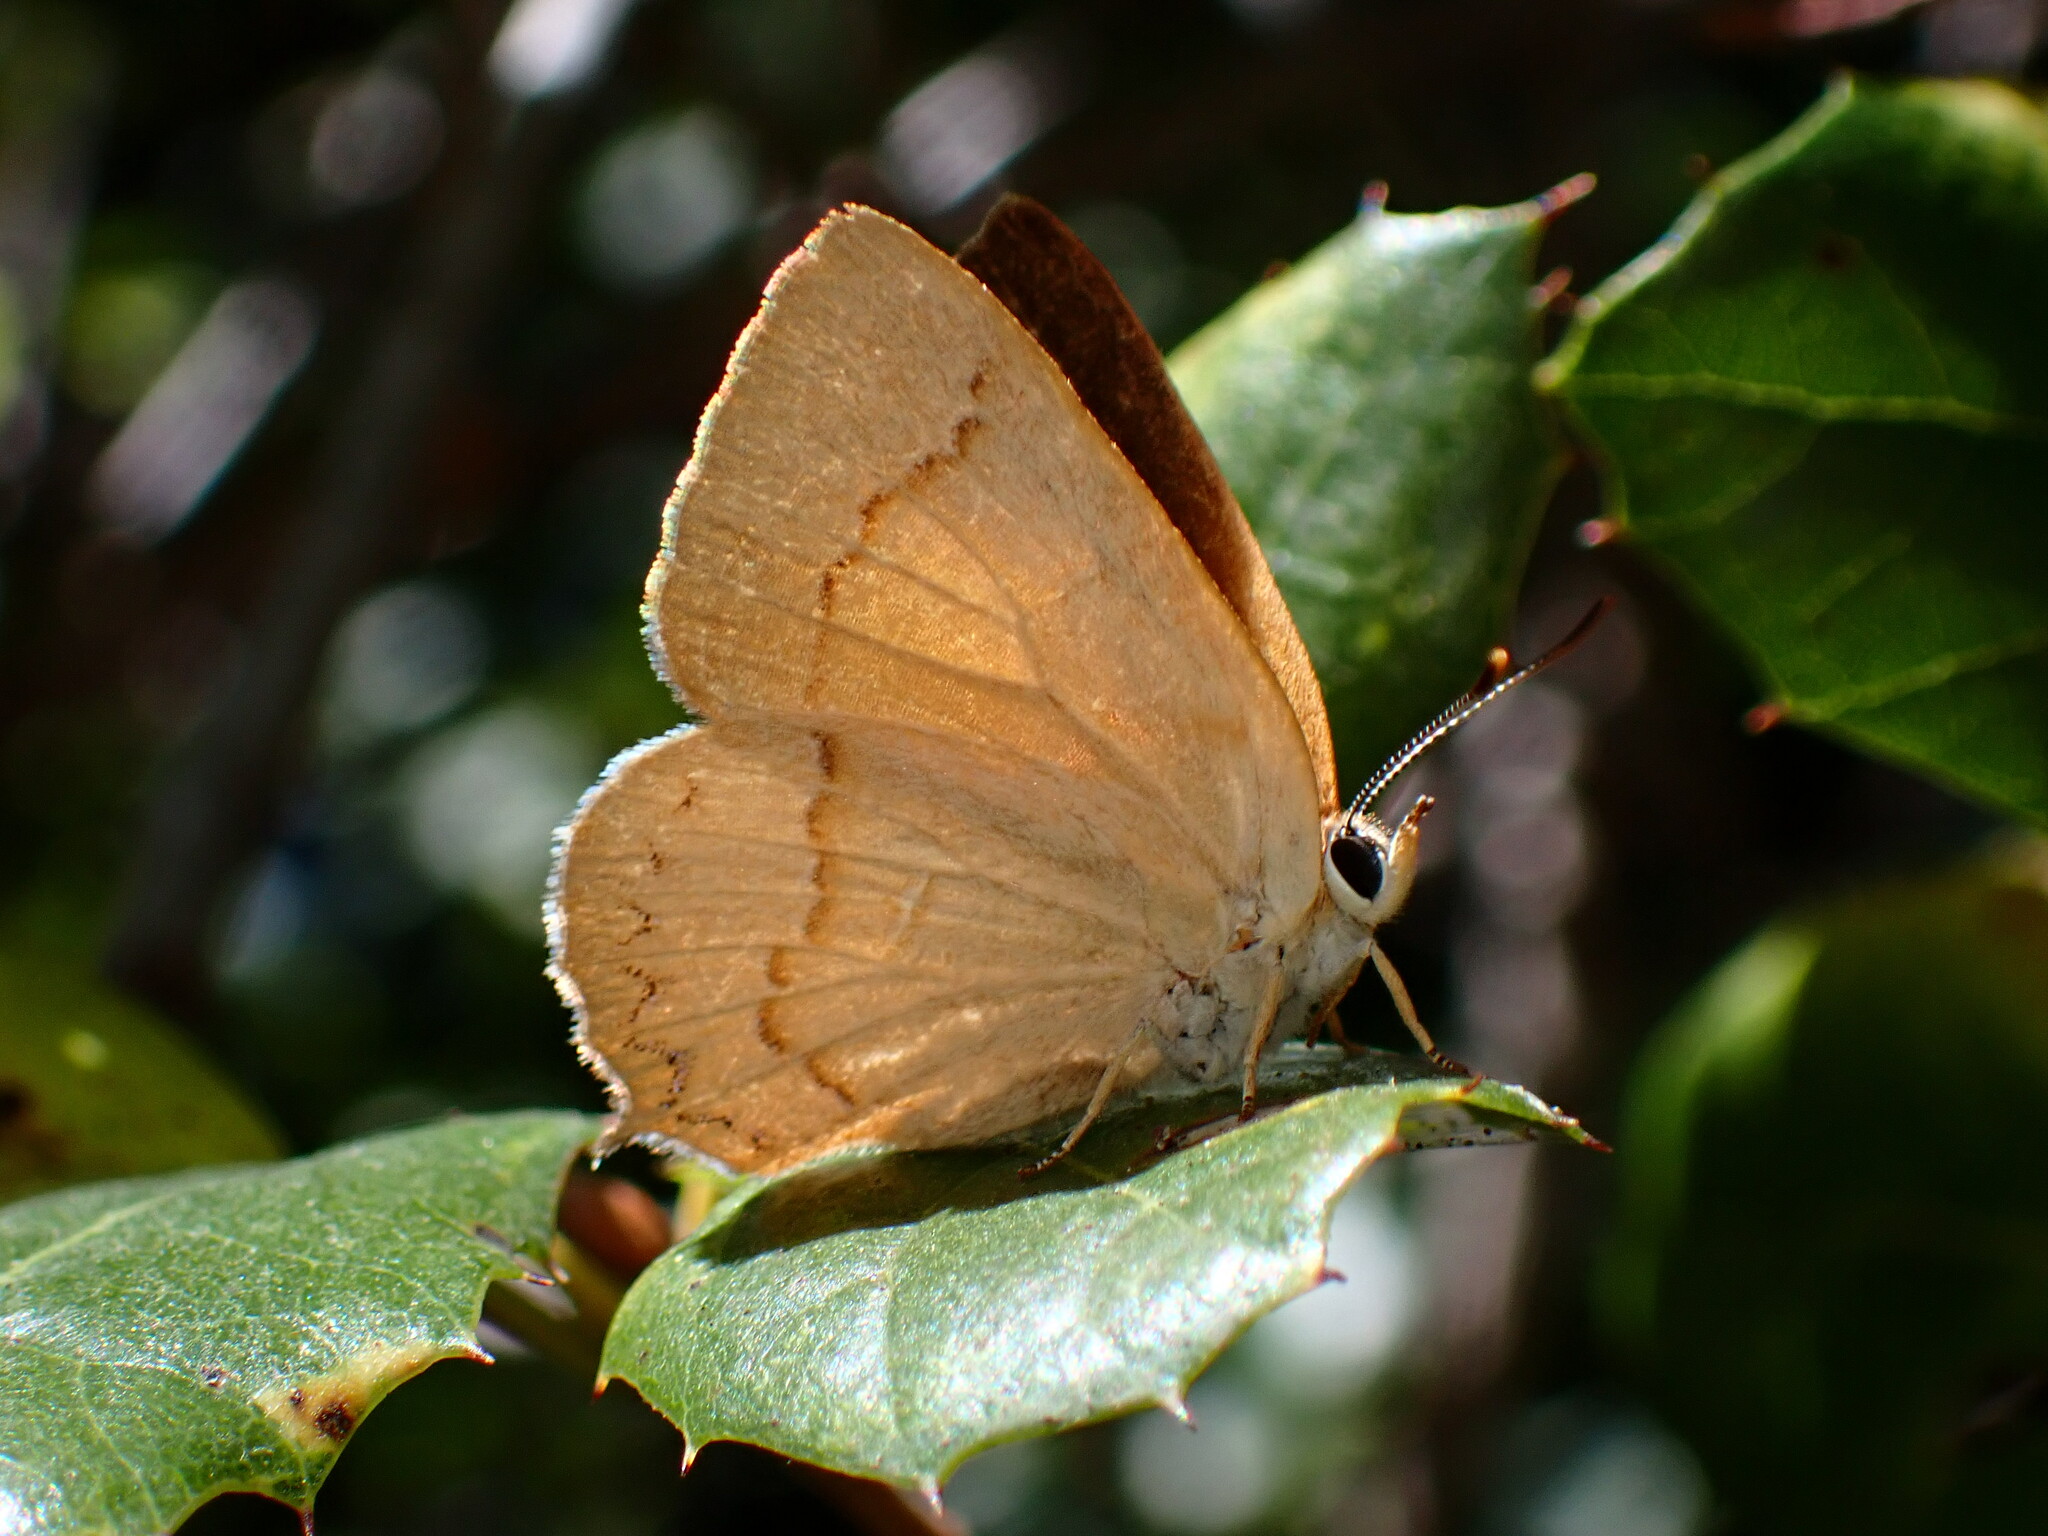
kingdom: Animalia
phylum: Arthropoda
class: Insecta
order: Lepidoptera
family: Lycaenidae
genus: Habrodais
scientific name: Habrodais grunus
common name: Golden hairstreak
